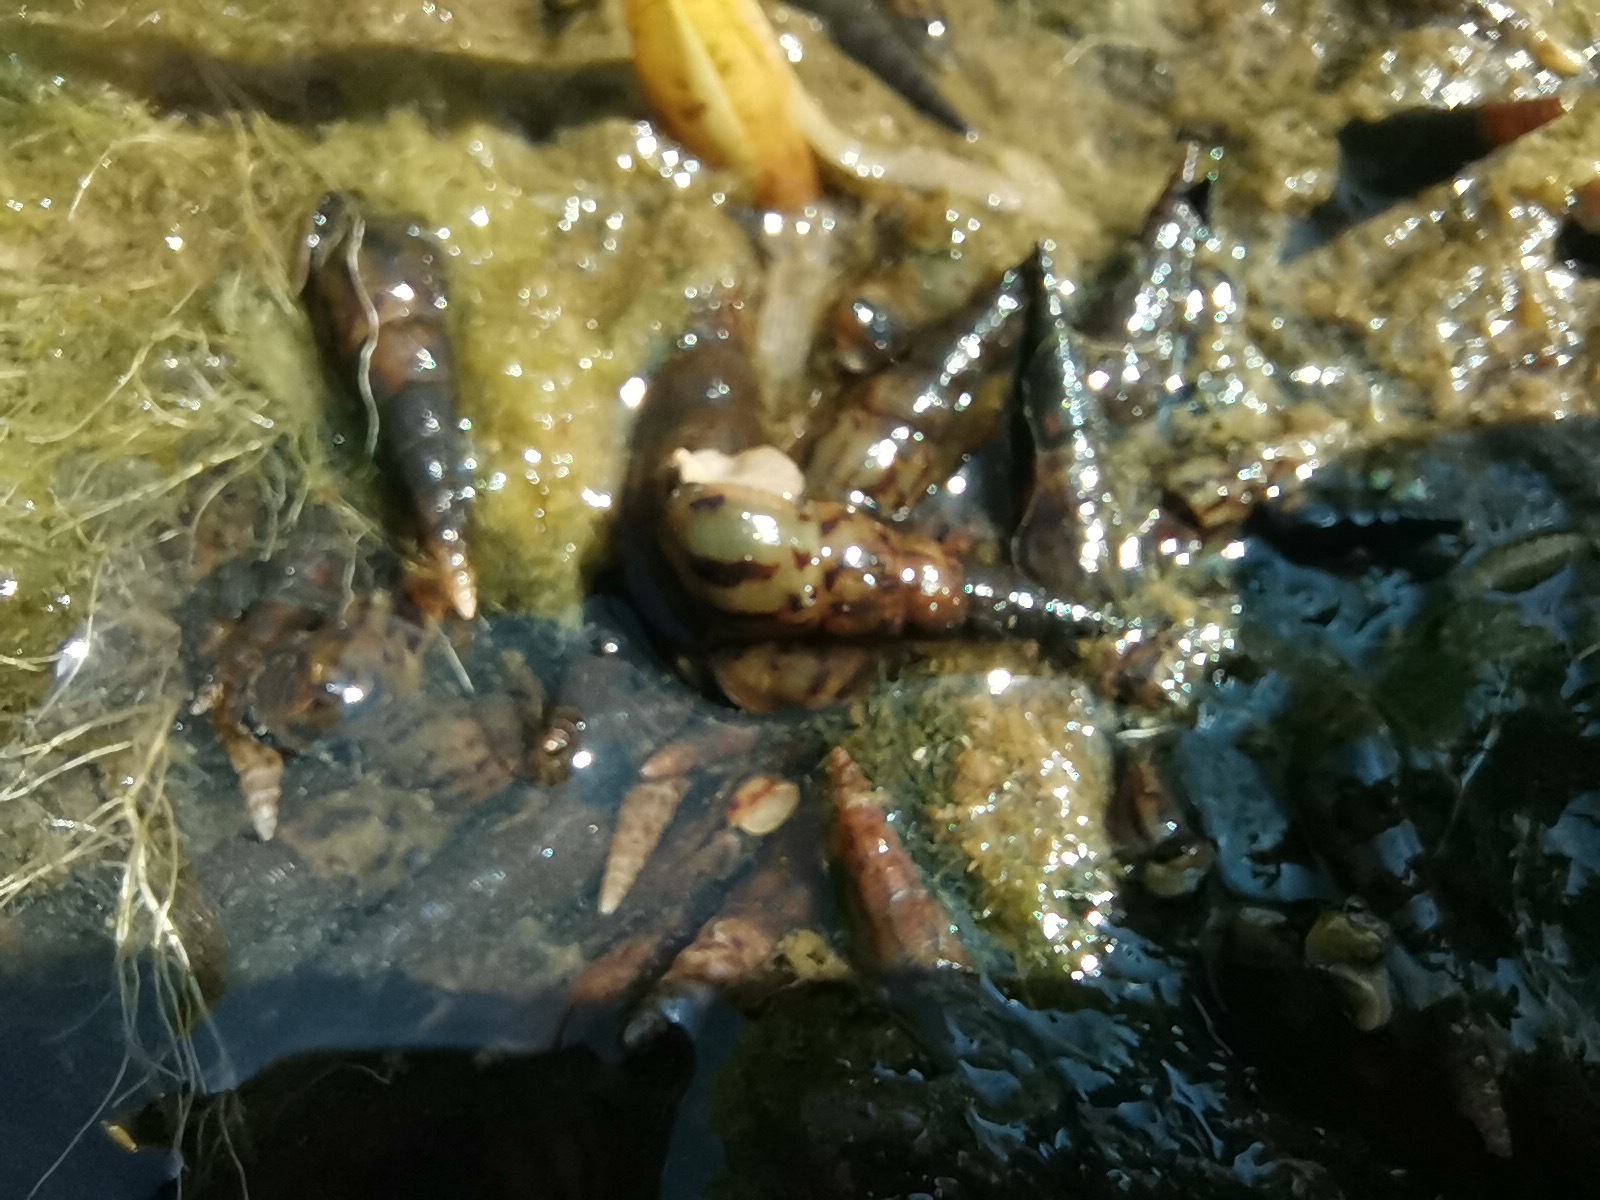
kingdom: Animalia
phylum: Mollusca
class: Gastropoda
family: Thiaridae
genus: Melanoides
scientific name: Melanoides tuberculata
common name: Red-rim melania
